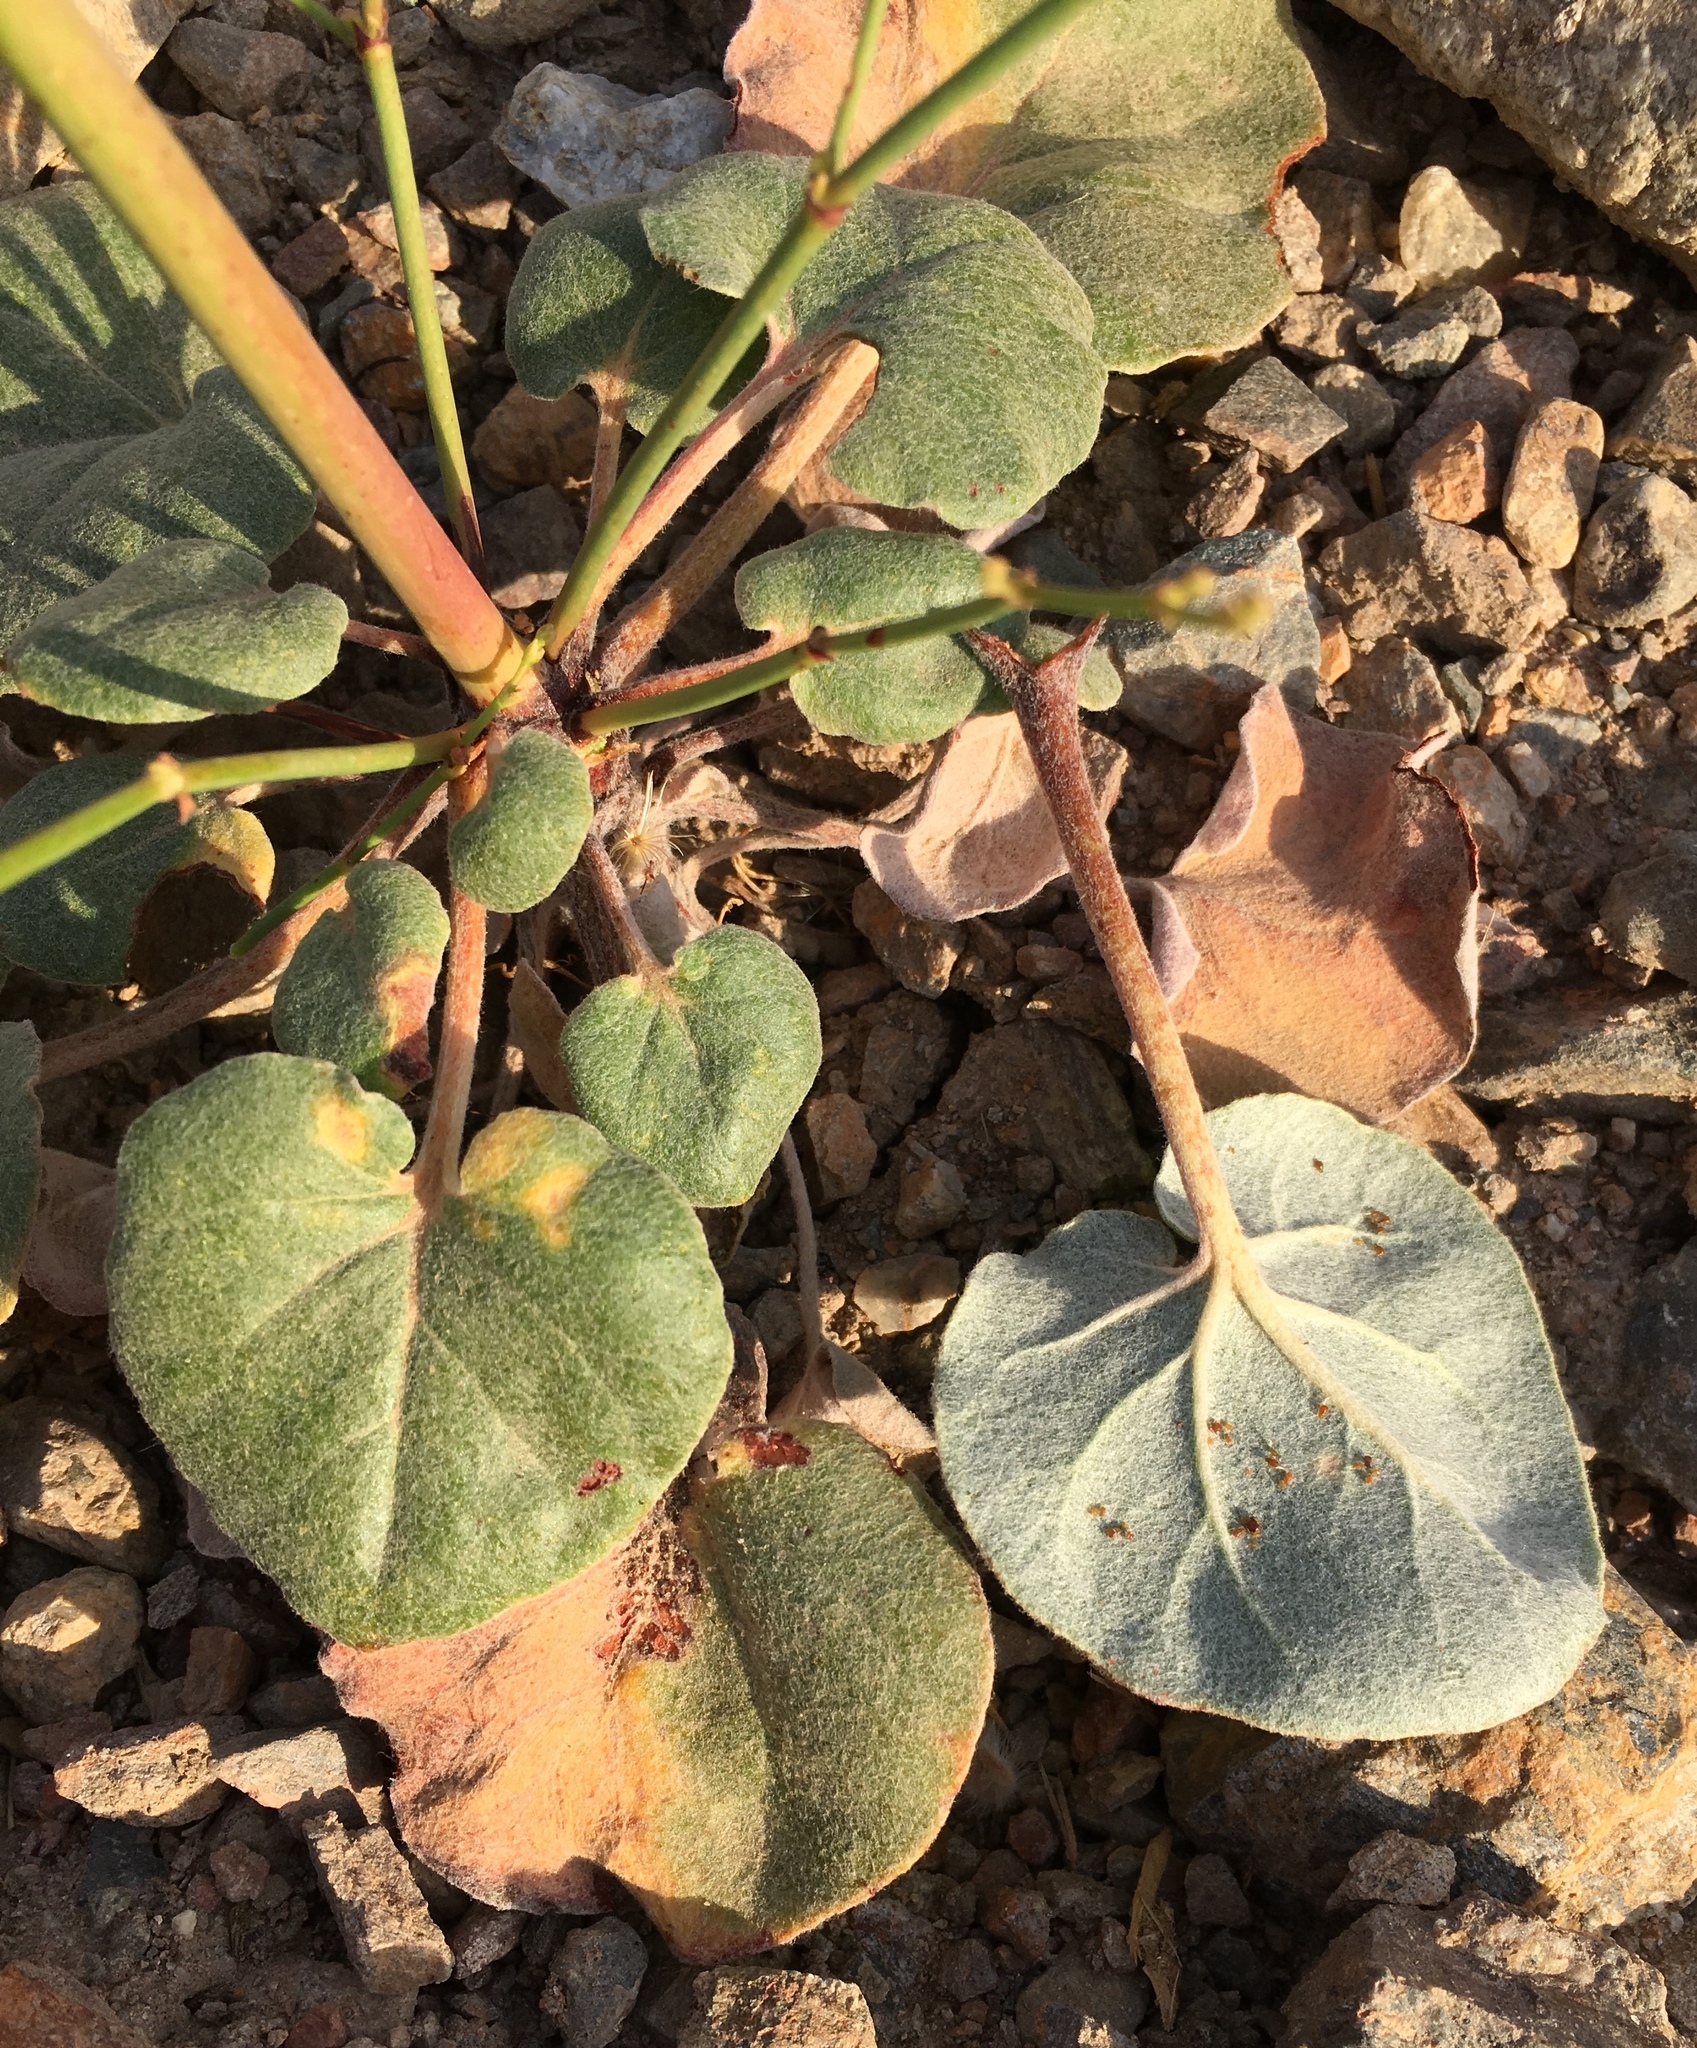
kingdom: Plantae
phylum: Tracheophyta
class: Magnoliopsida
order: Caryophyllales
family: Polygonaceae
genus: Eriogonum
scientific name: Eriogonum hoffmannii
